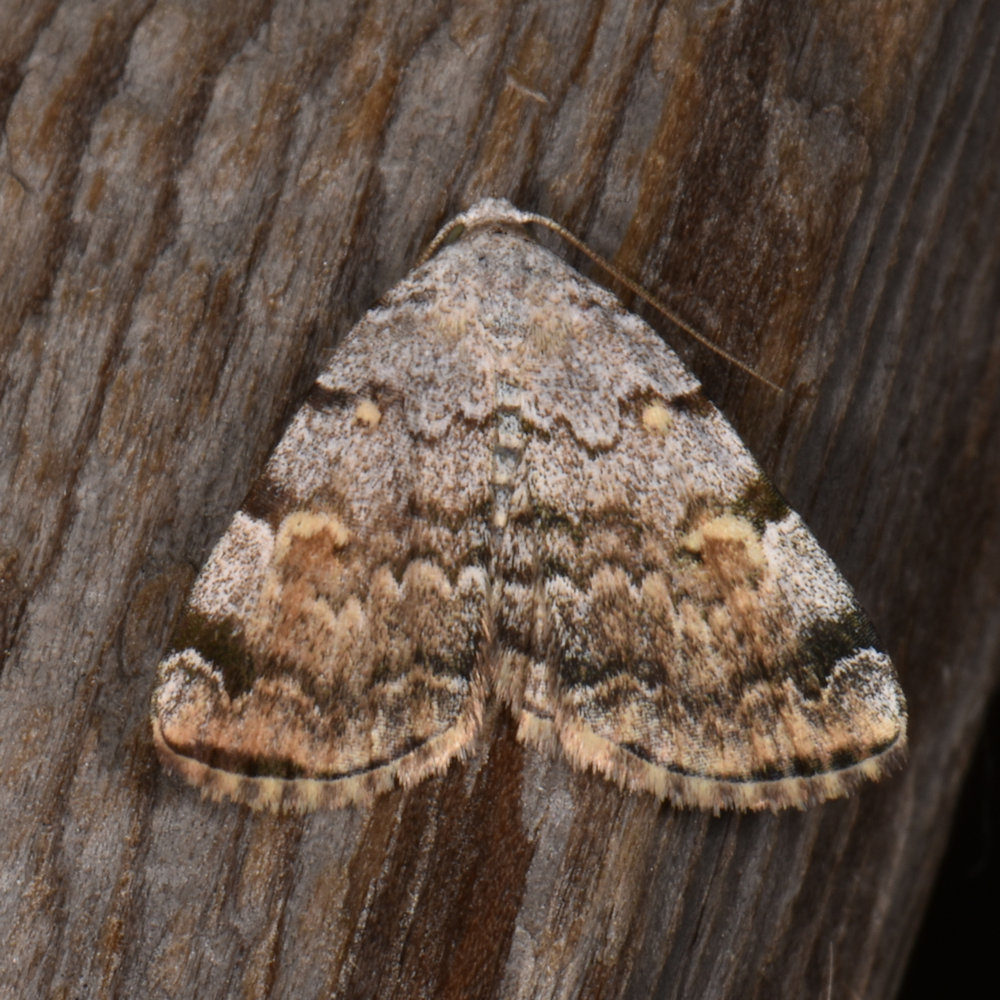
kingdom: Animalia
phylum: Arthropoda
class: Insecta
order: Lepidoptera
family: Erebidae
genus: Idia
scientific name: Idia americalis
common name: American idia moth
